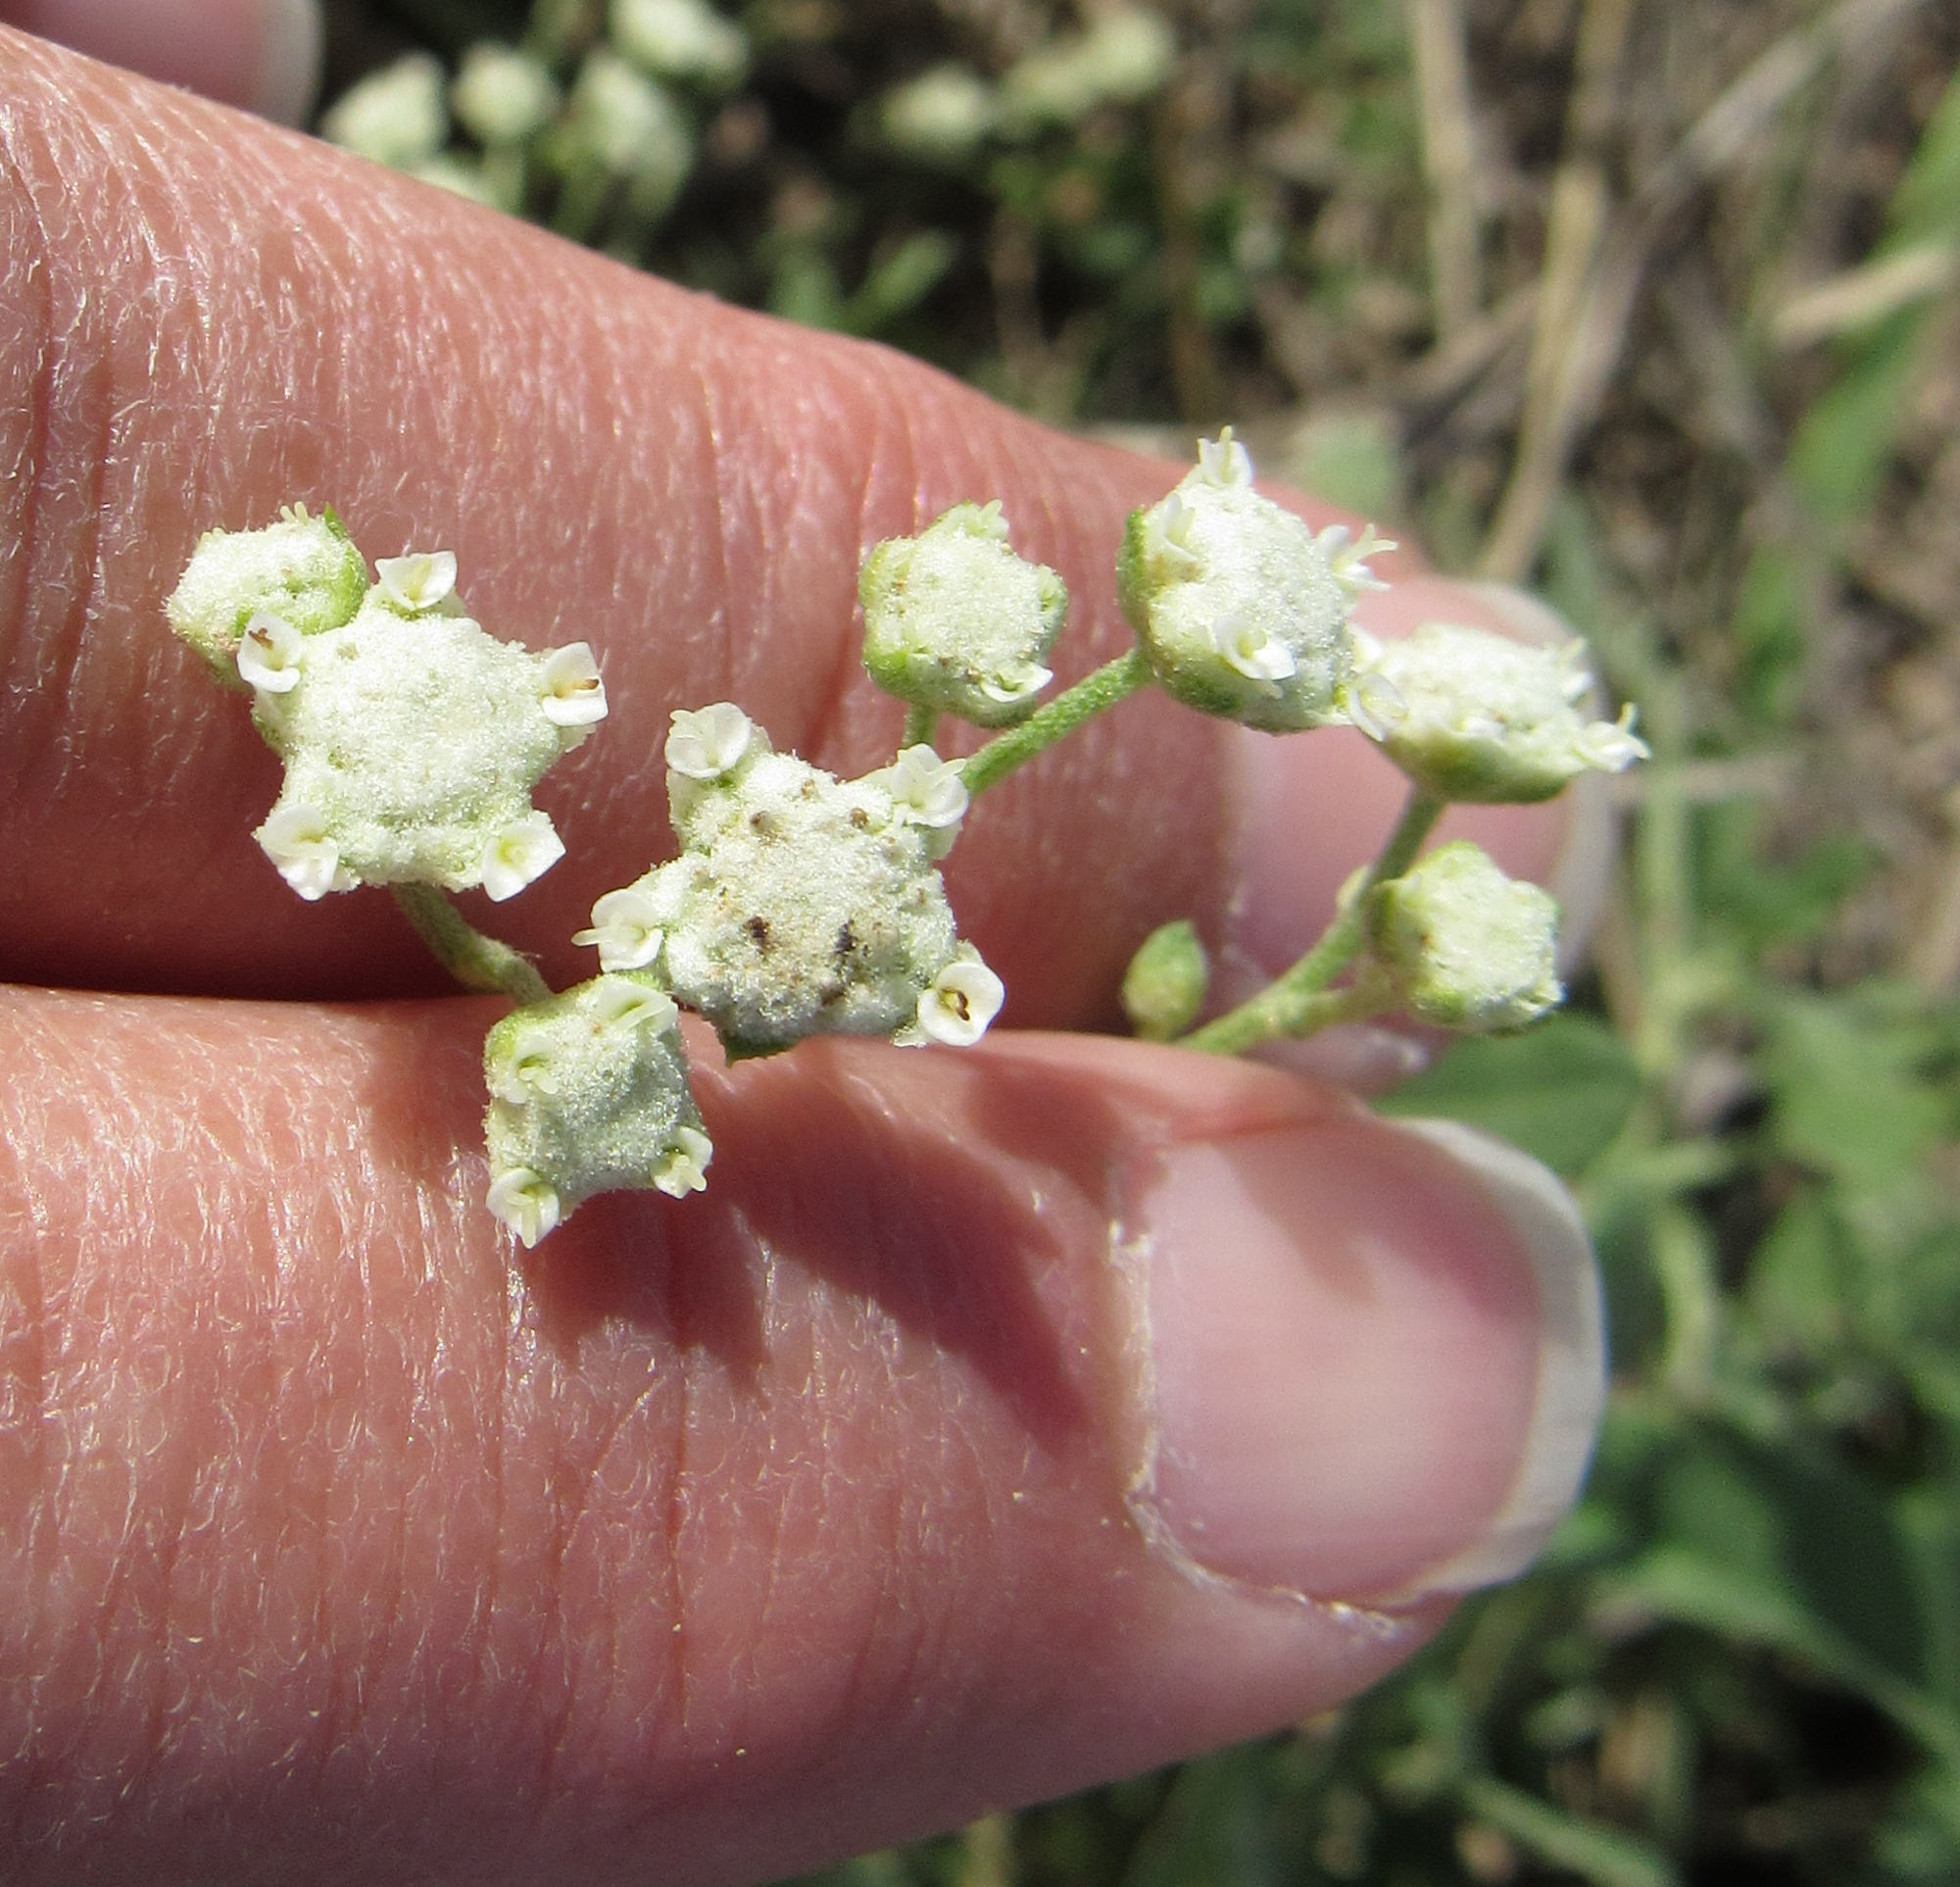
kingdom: Plantae
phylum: Tracheophyta
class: Magnoliopsida
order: Asterales
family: Asteraceae
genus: Parthenium
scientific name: Parthenium confertum
